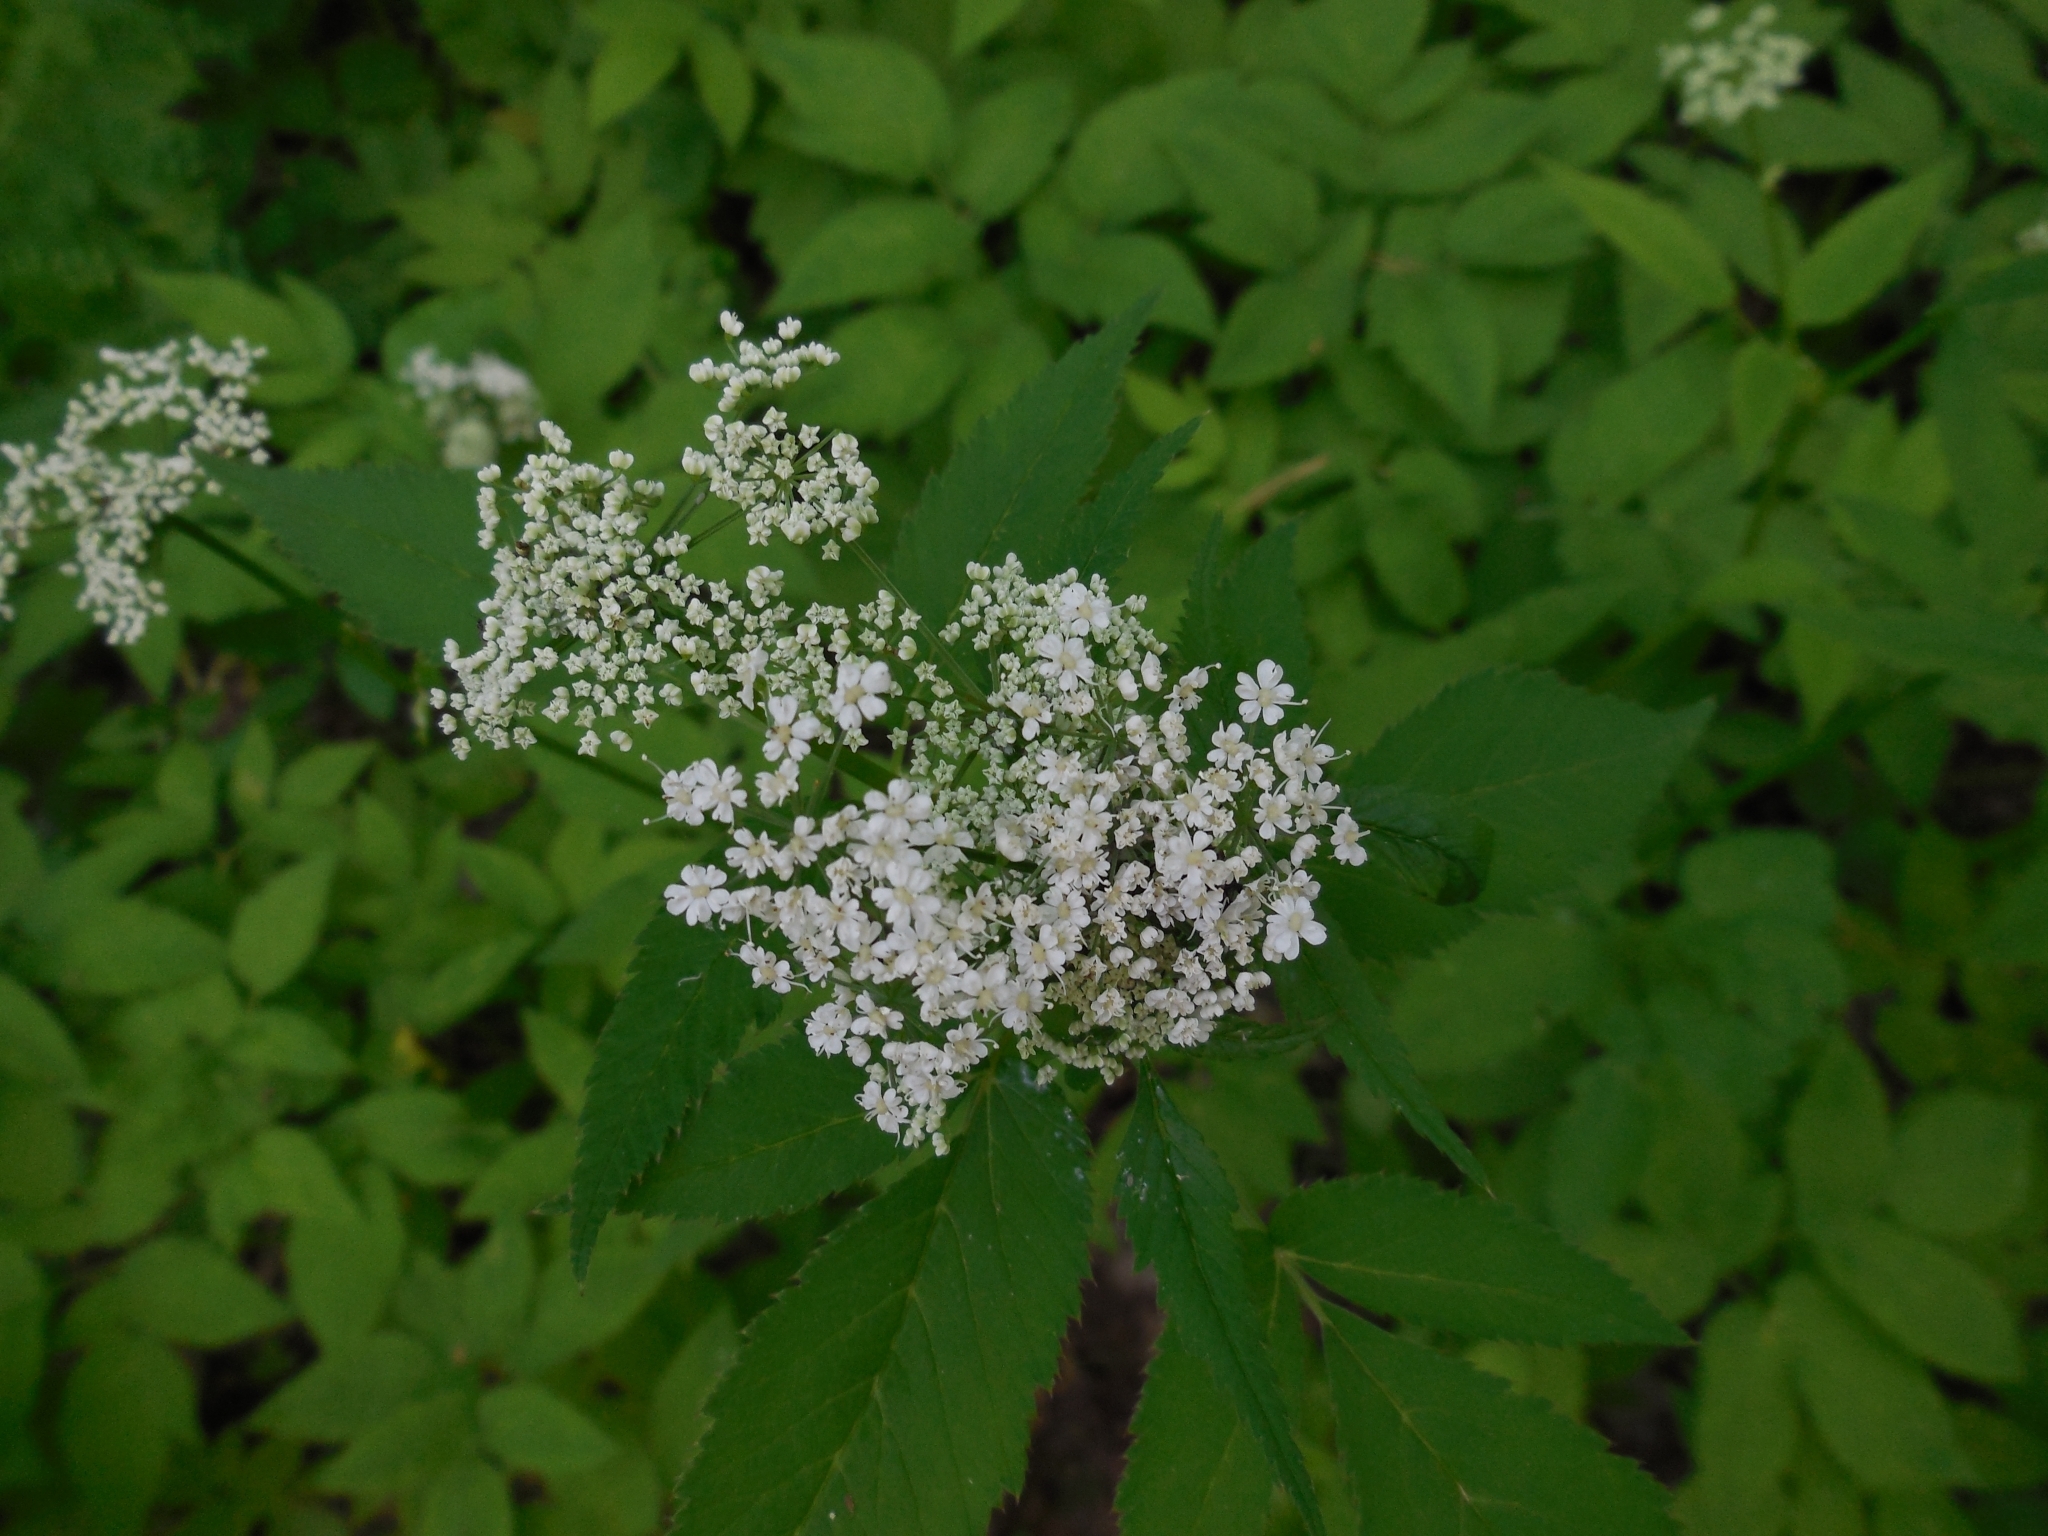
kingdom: Plantae
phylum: Tracheophyta
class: Magnoliopsida
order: Apiales
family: Apiaceae
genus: Aegopodium
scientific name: Aegopodium podagraria
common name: Ground-elder
